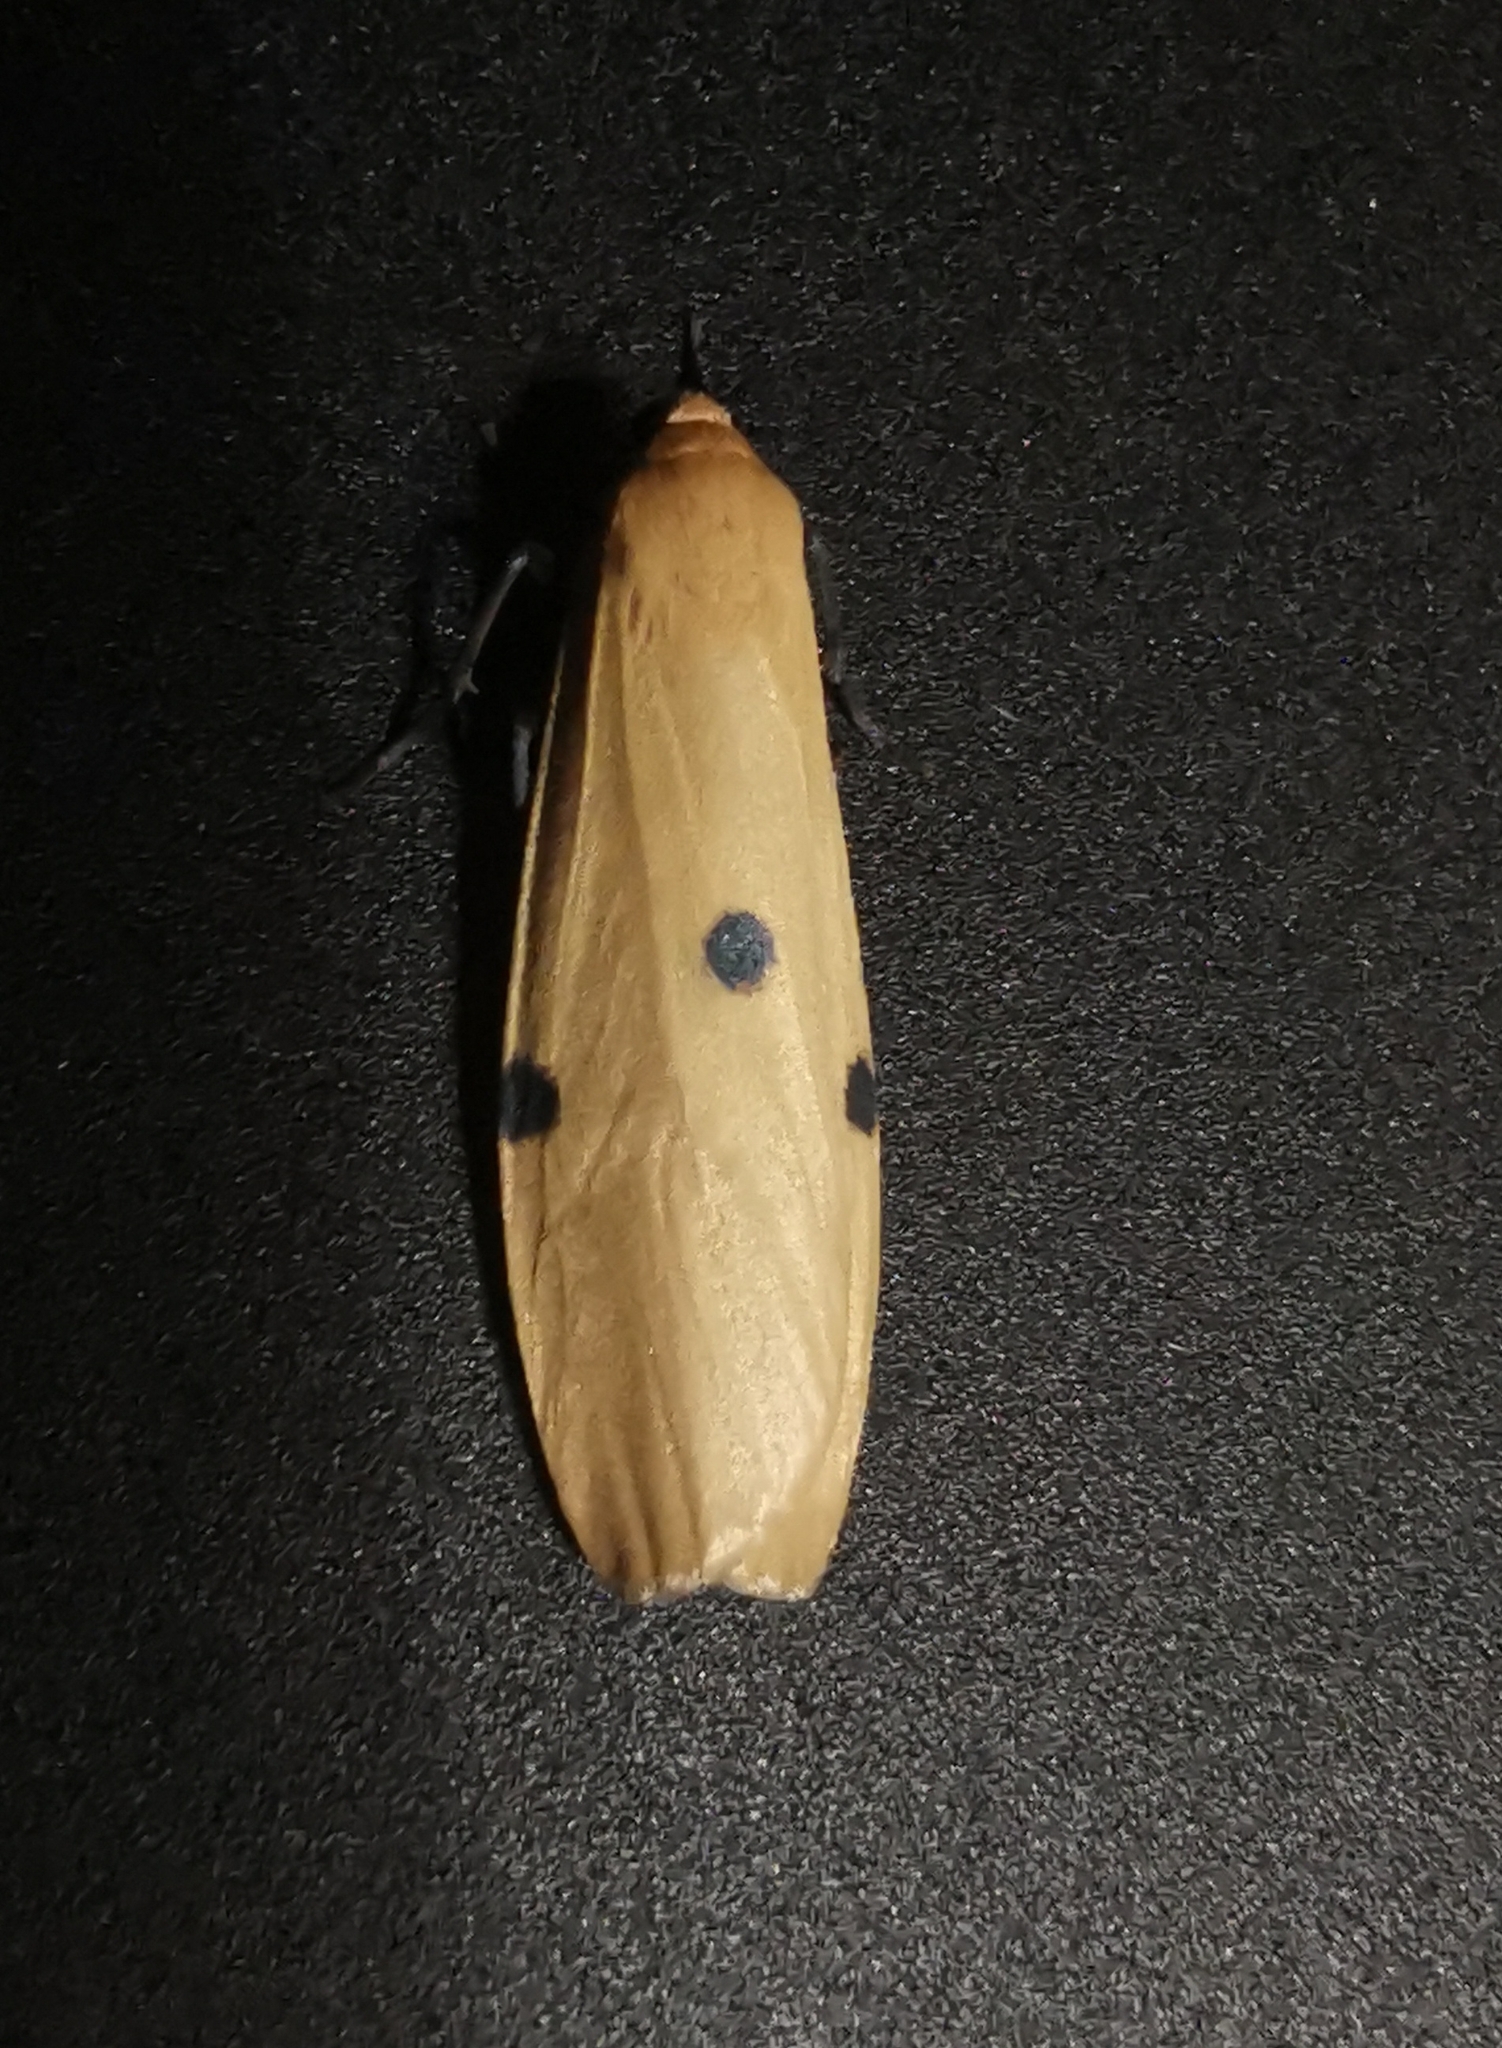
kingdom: Animalia
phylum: Arthropoda
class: Insecta
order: Lepidoptera
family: Erebidae
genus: Lithosia
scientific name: Lithosia quadra
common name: Four-spotted footman
